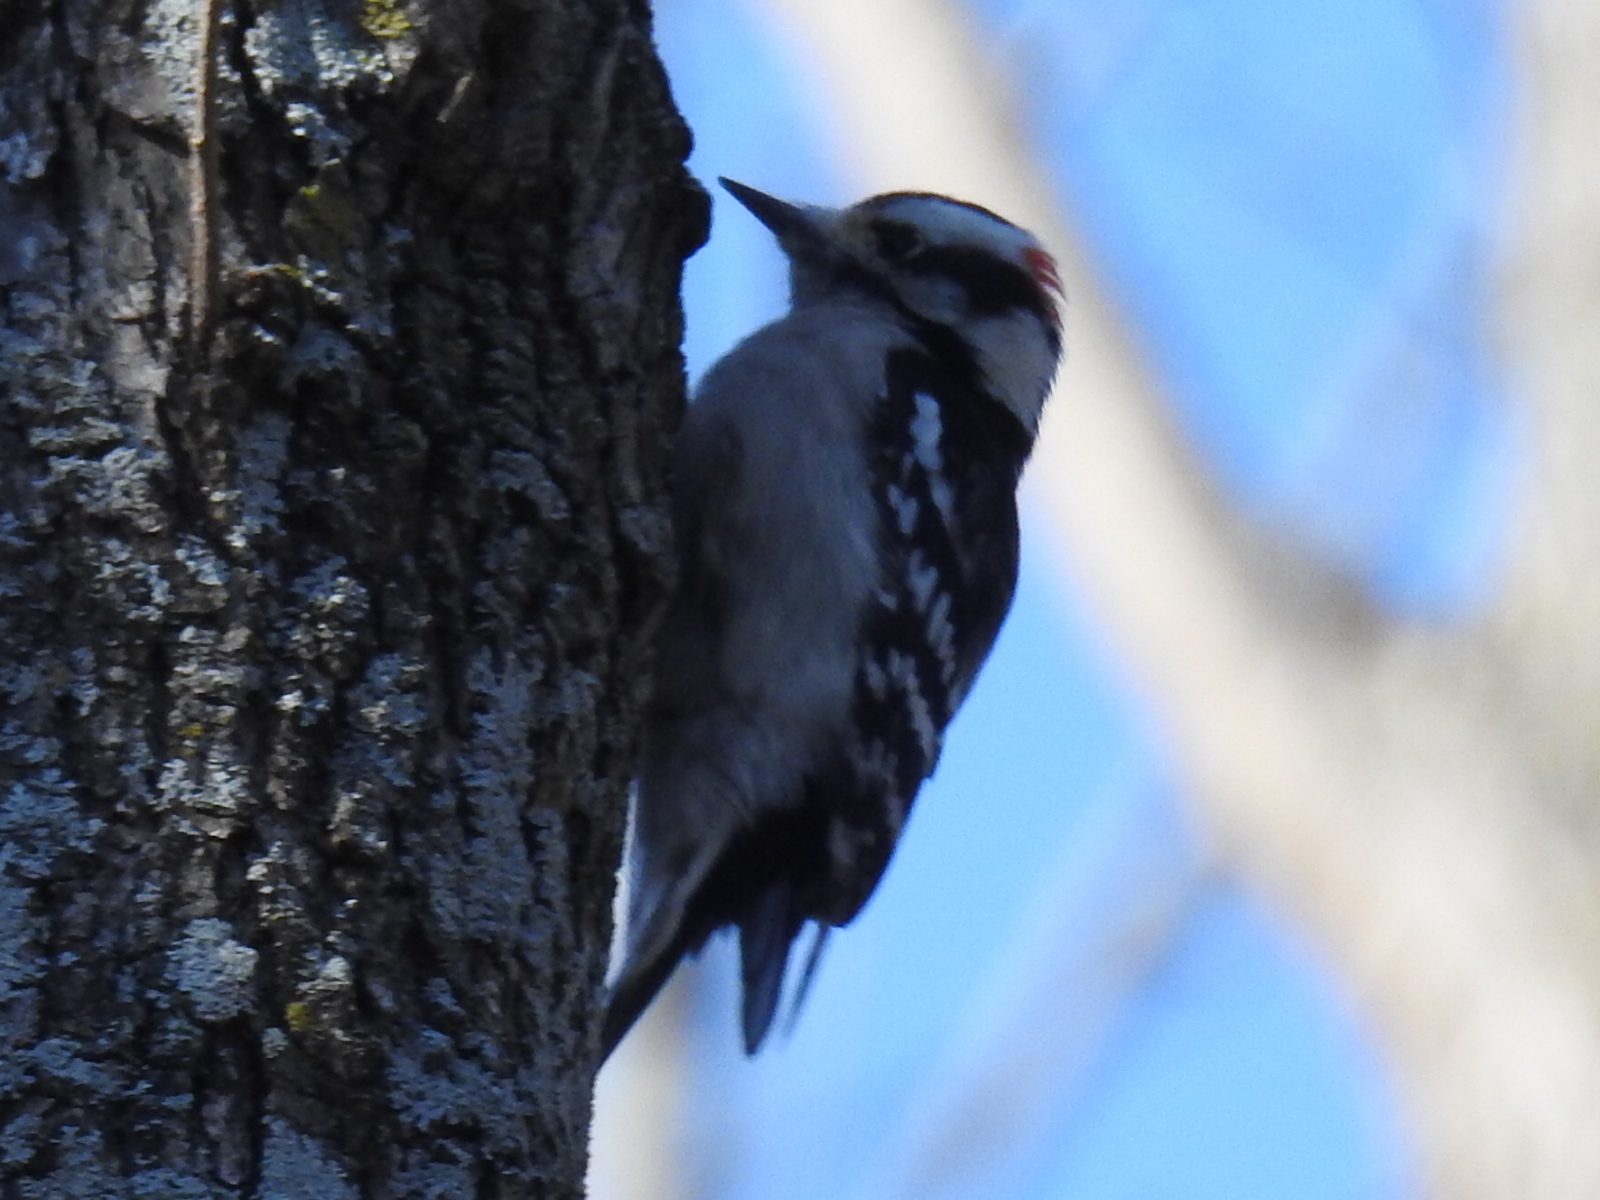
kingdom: Animalia
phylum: Chordata
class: Aves
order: Piciformes
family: Picidae
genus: Dryobates
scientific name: Dryobates pubescens
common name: Downy woodpecker
